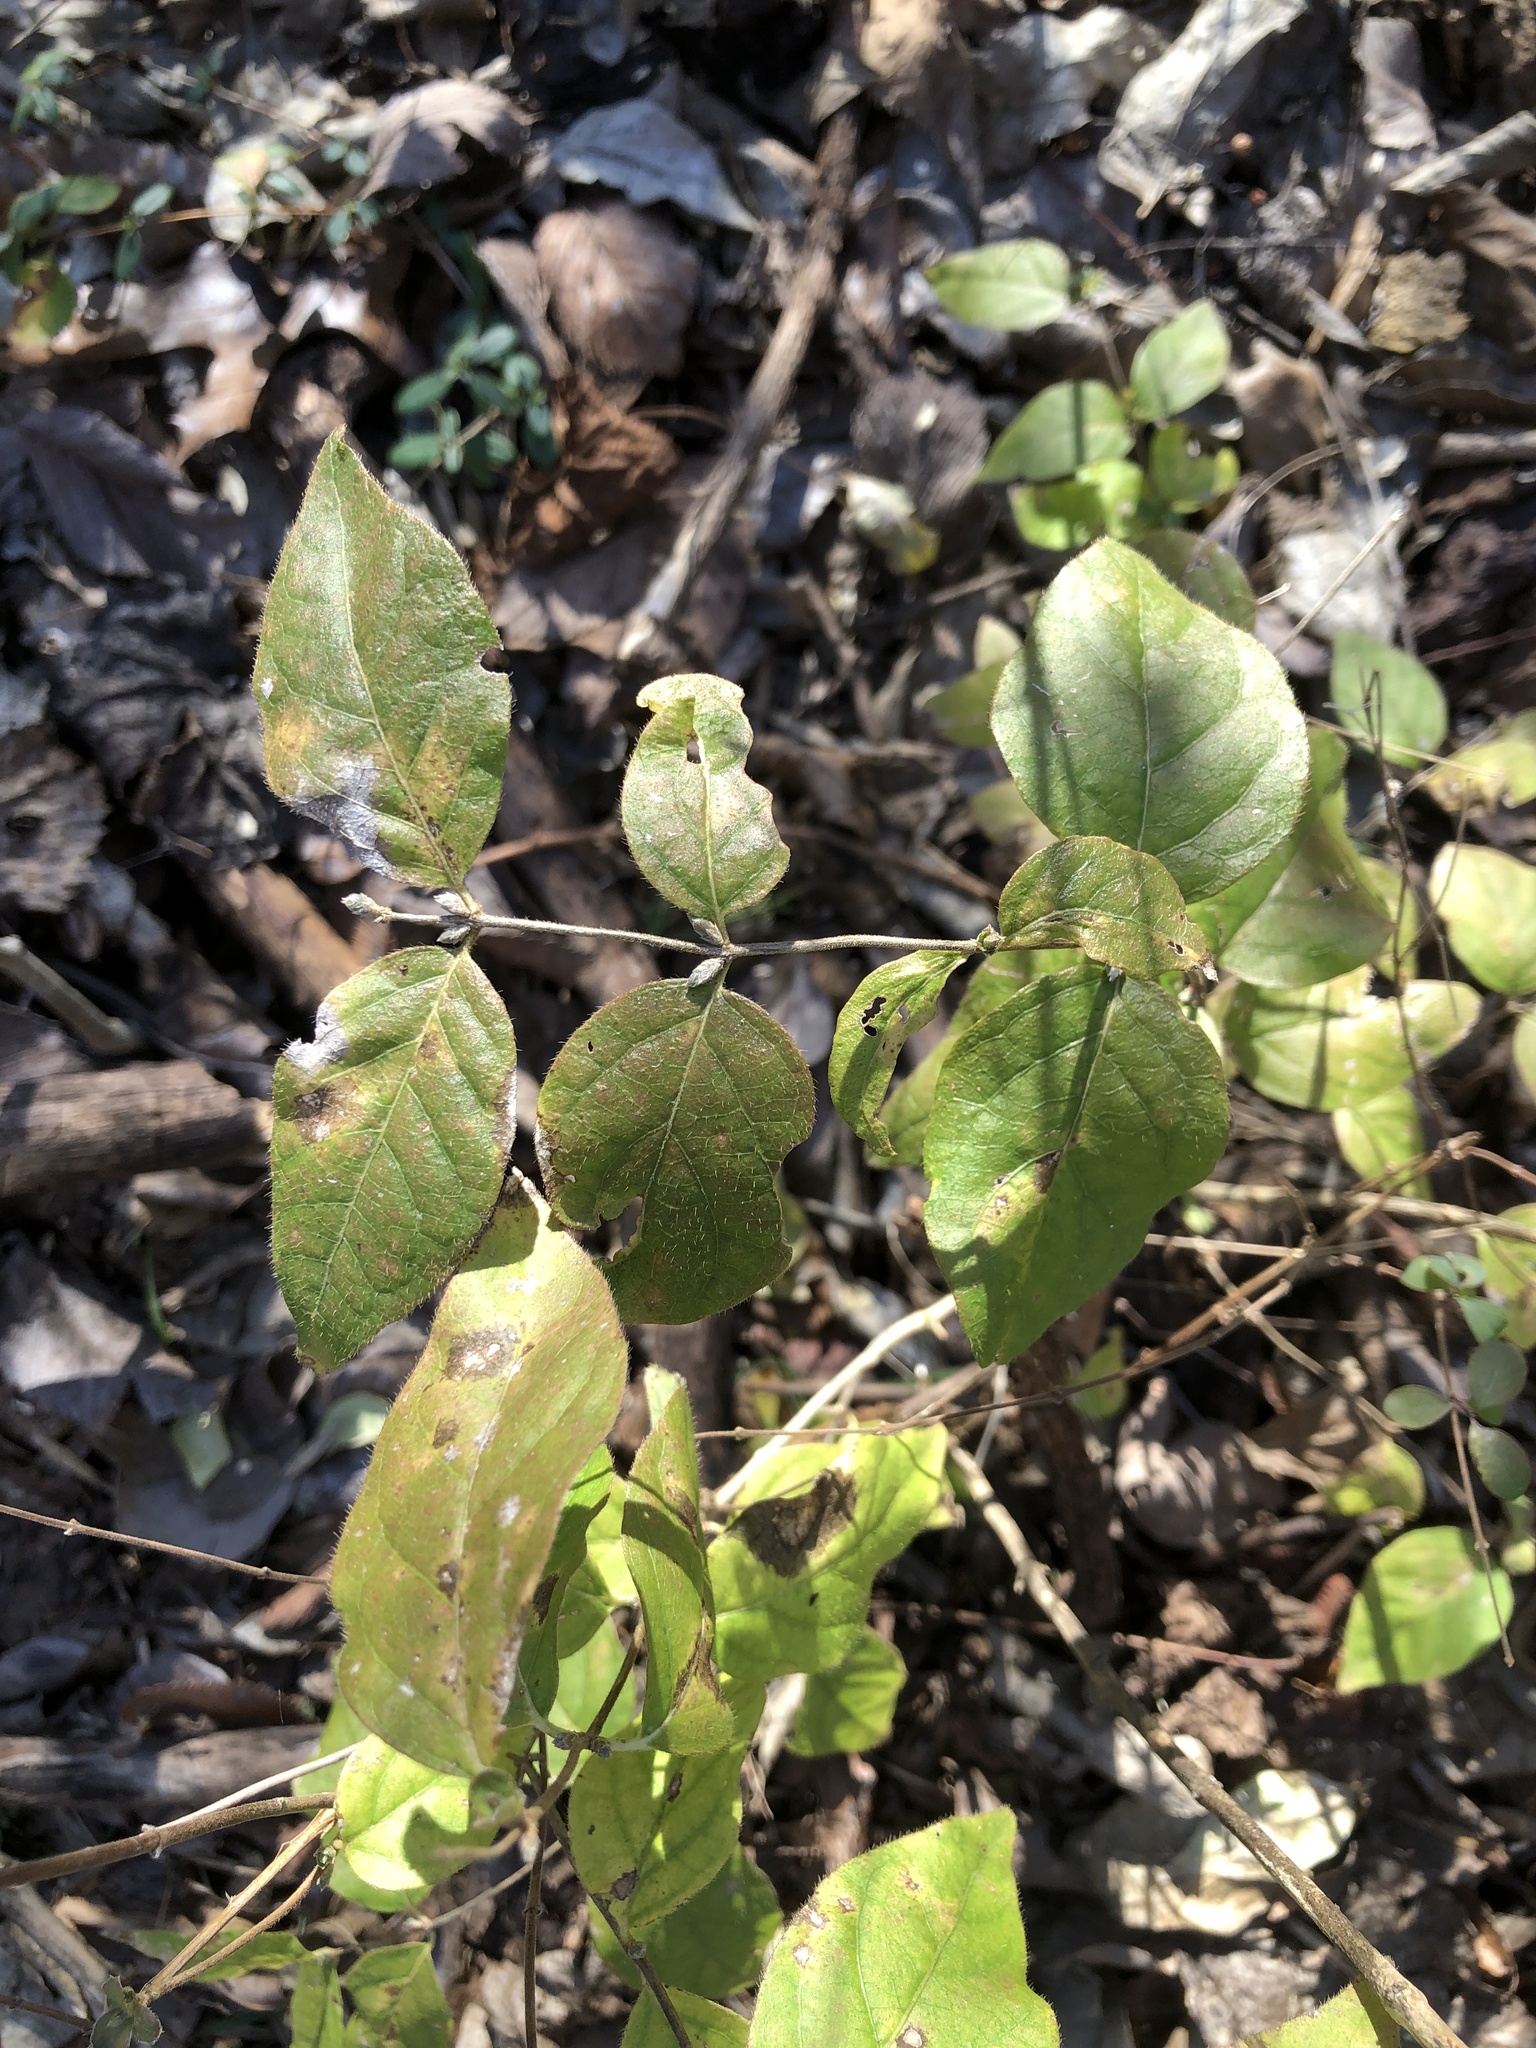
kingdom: Plantae
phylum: Tracheophyta
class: Magnoliopsida
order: Dipsacales
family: Caprifoliaceae
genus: Lonicera
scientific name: Lonicera maackii
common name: Amur honeysuckle
